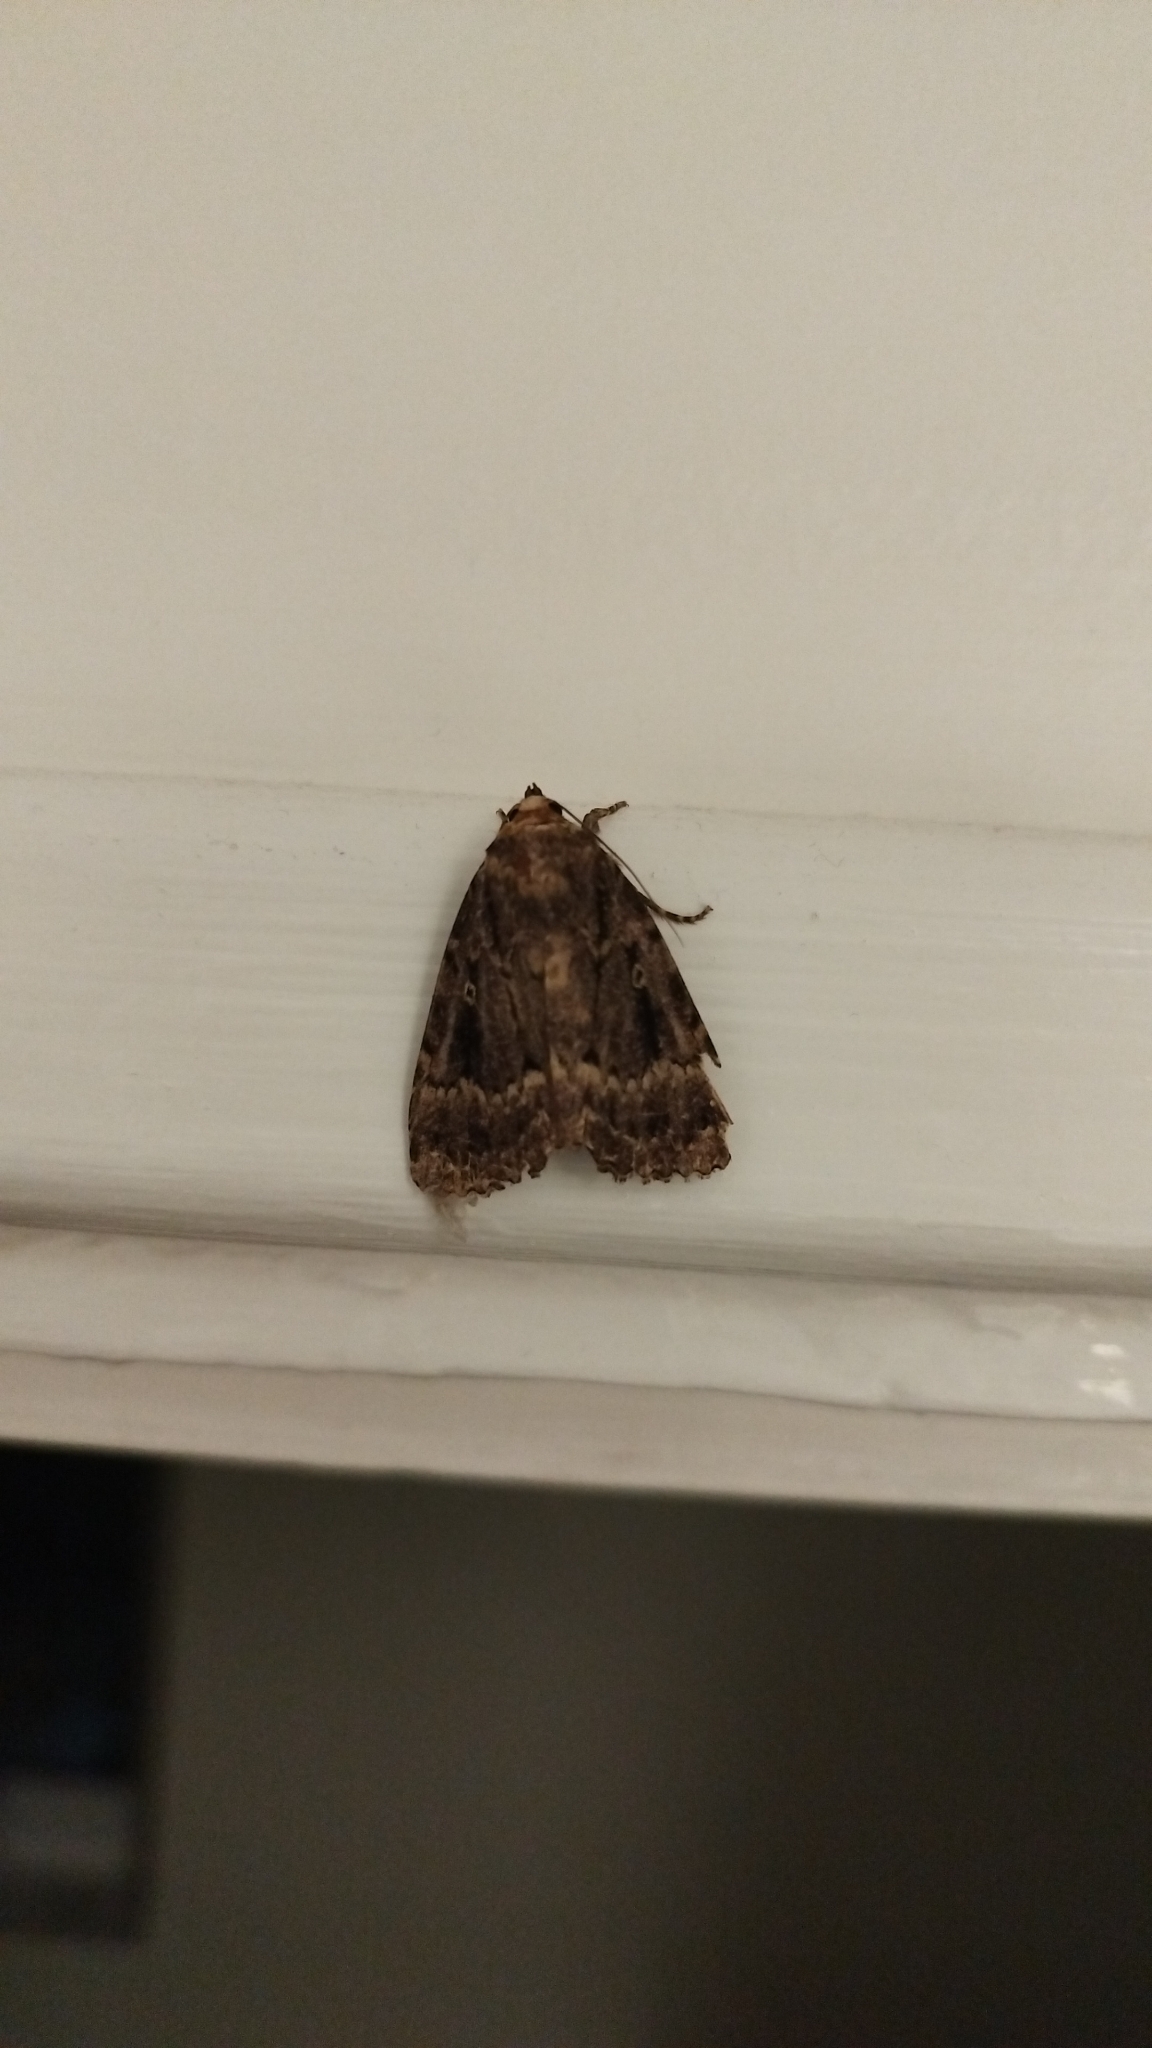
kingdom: Animalia
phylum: Arthropoda
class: Insecta
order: Lepidoptera
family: Noctuidae
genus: Amphipyra
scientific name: Amphipyra
